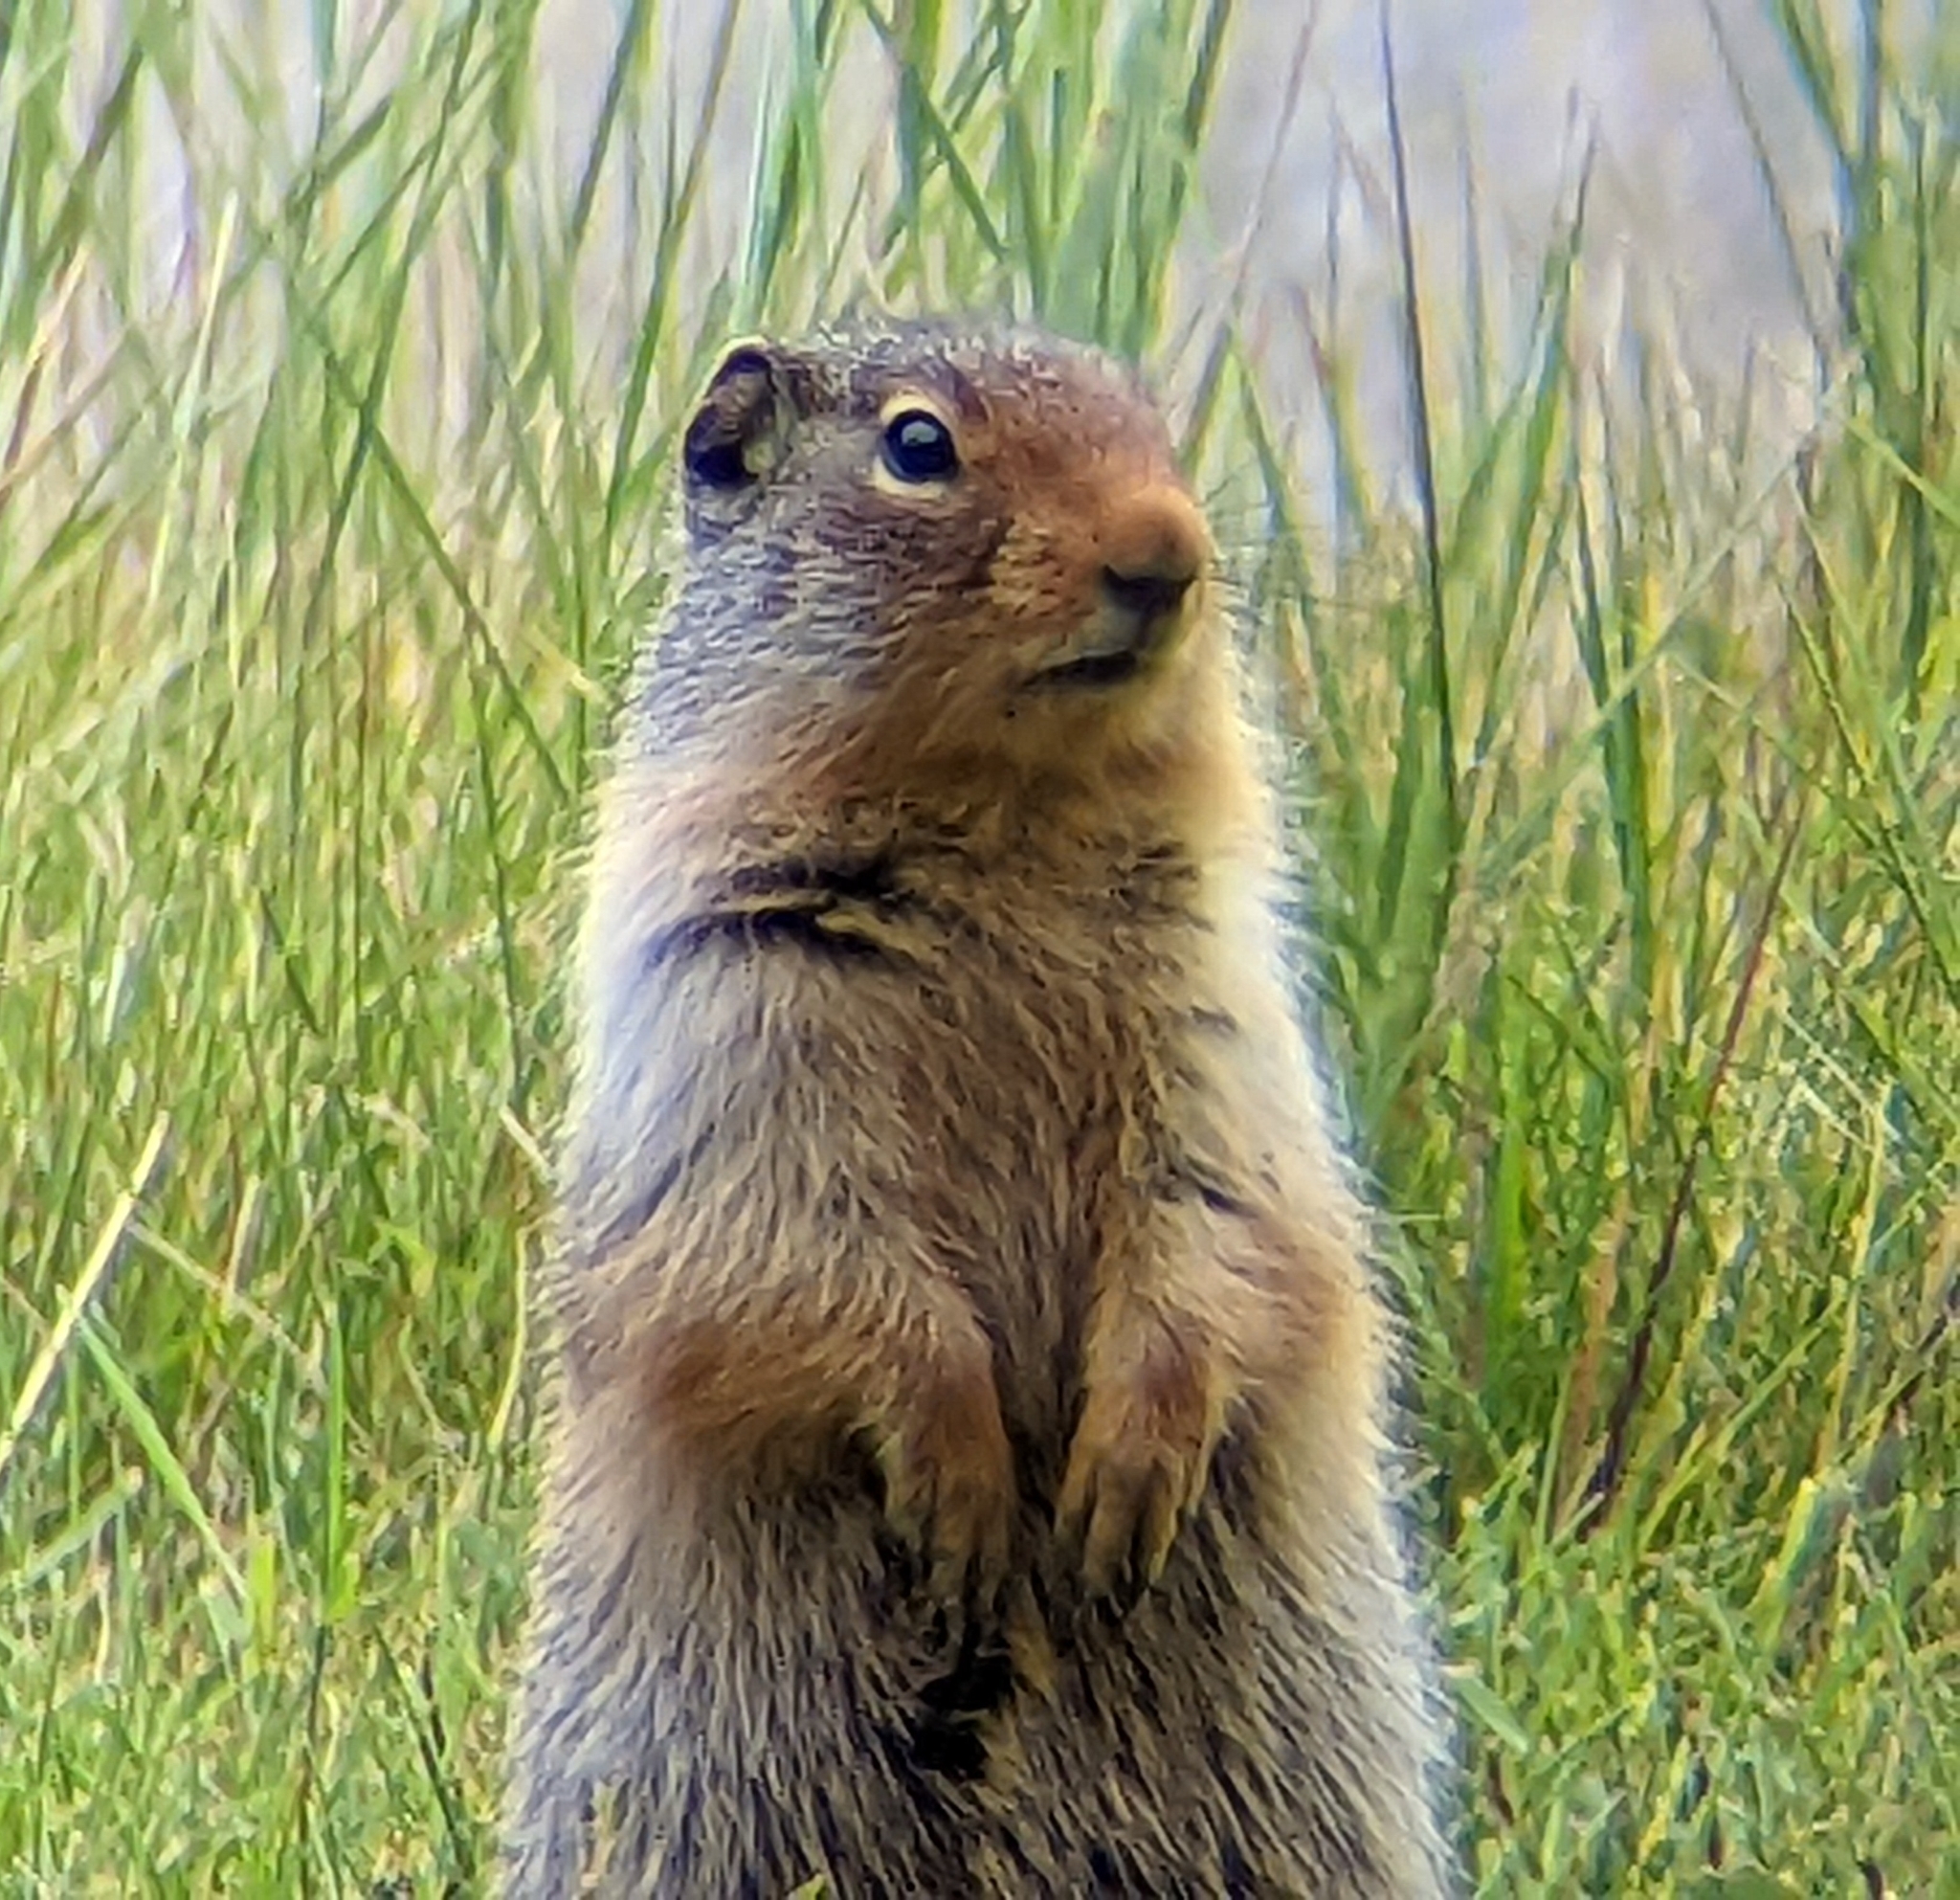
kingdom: Animalia
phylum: Chordata
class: Mammalia
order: Rodentia
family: Sciuridae
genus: Urocitellus
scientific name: Urocitellus columbianus
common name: Columbian ground squirrel
